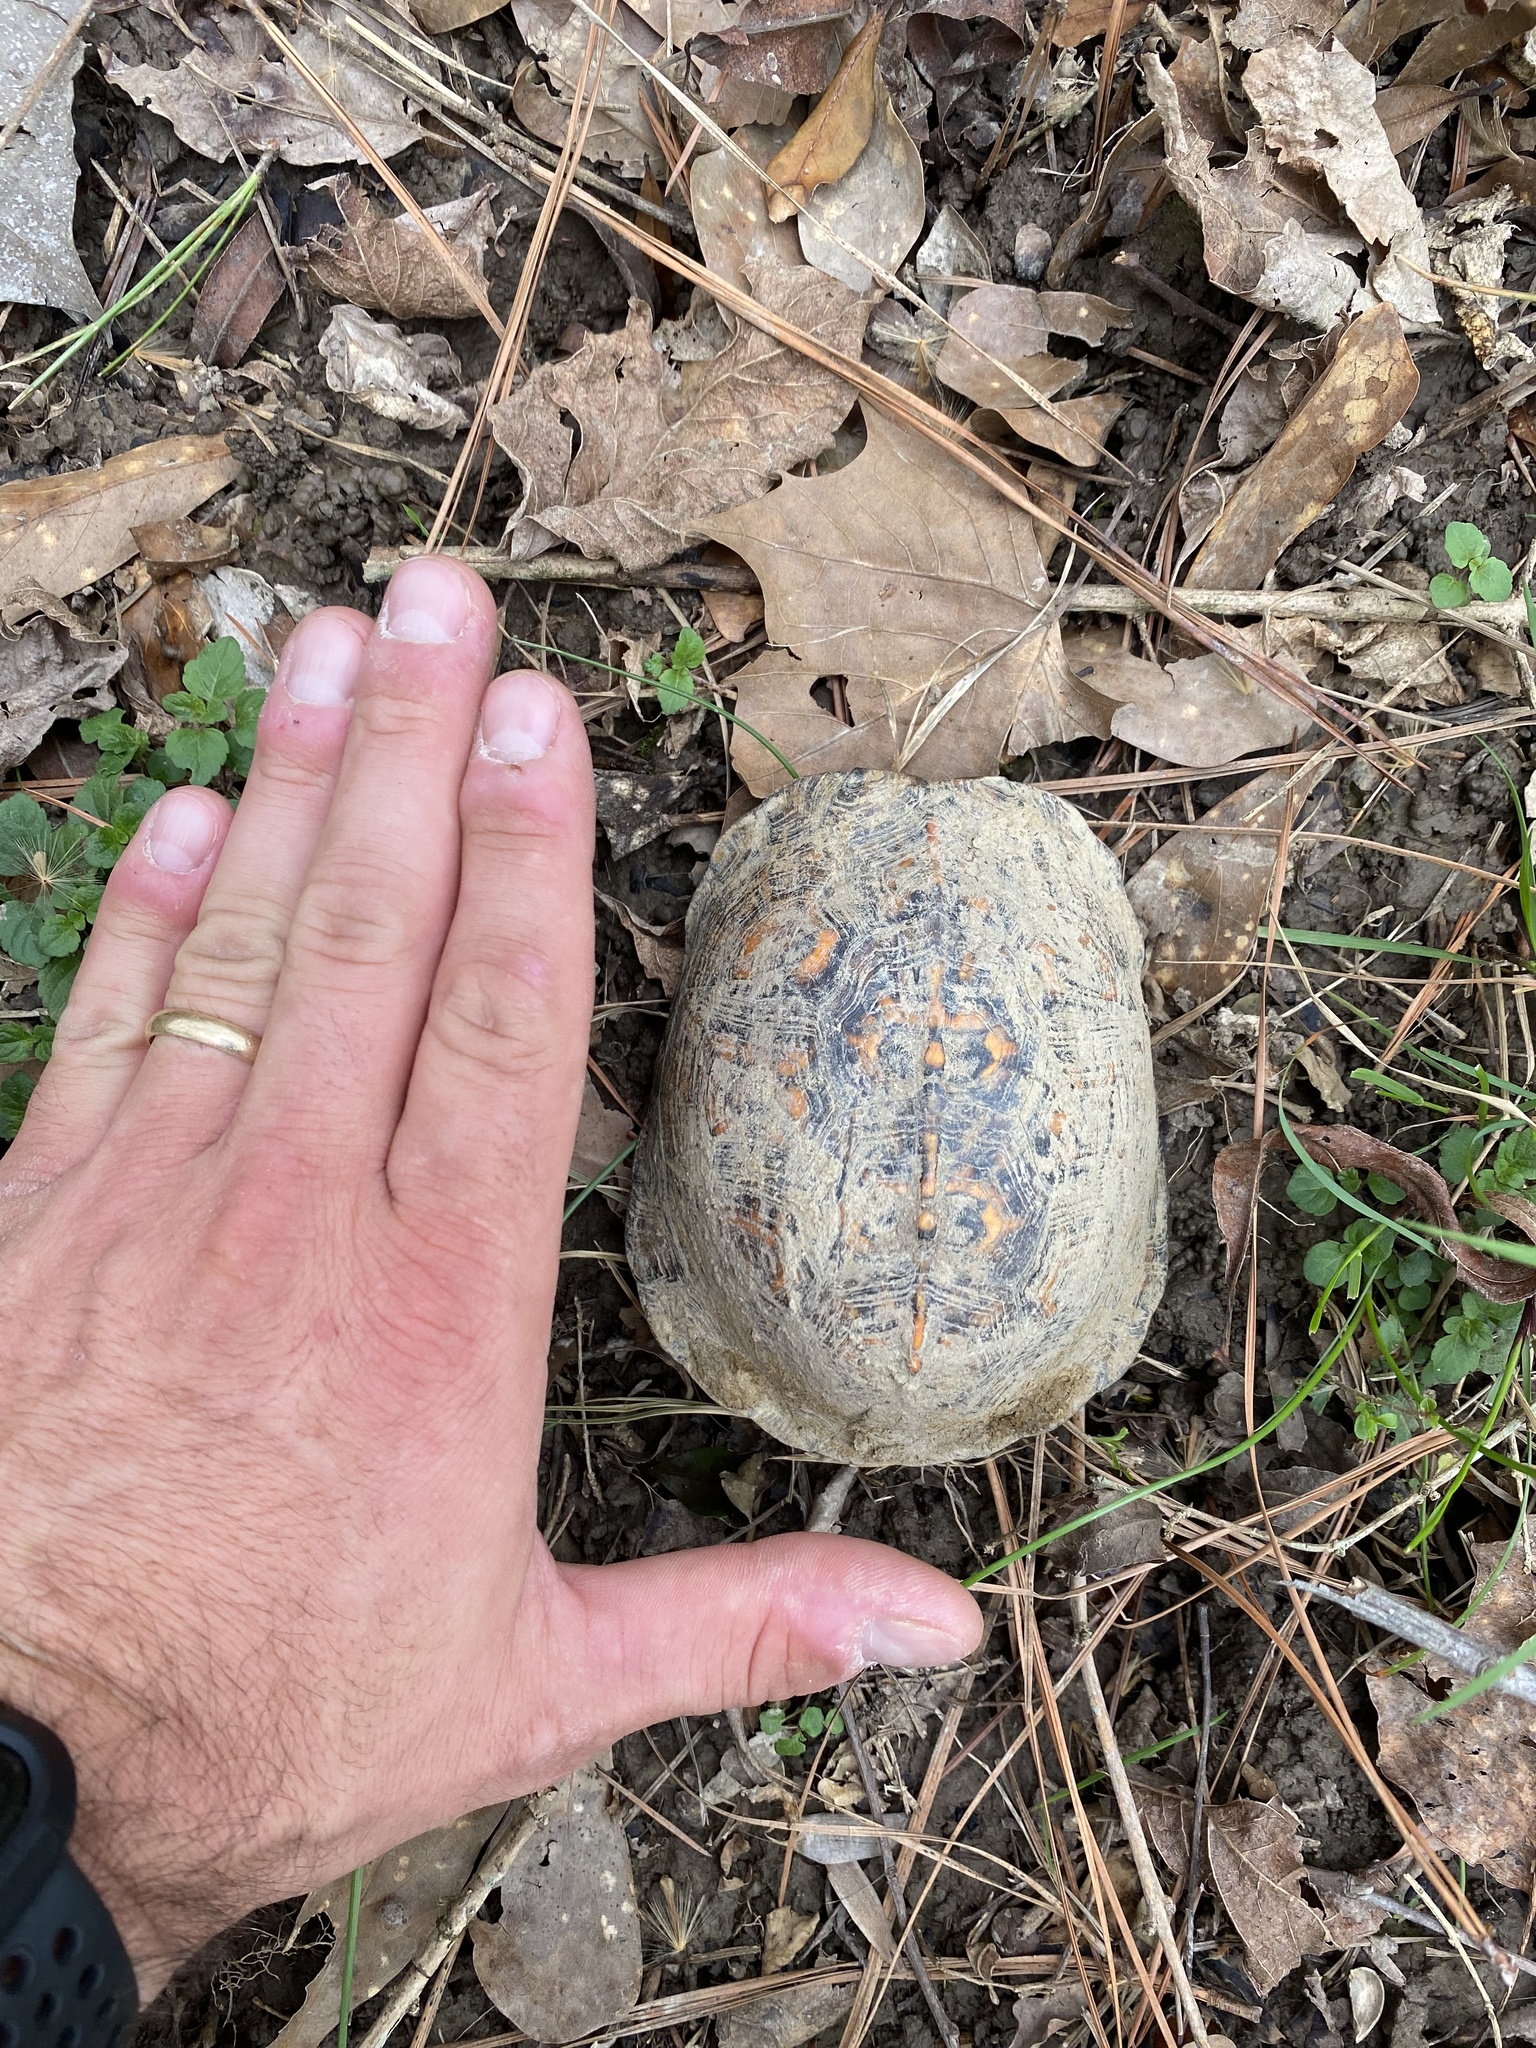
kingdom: Animalia
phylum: Chordata
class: Testudines
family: Emydidae
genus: Terrapene
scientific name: Terrapene carolina
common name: Common box turtle
